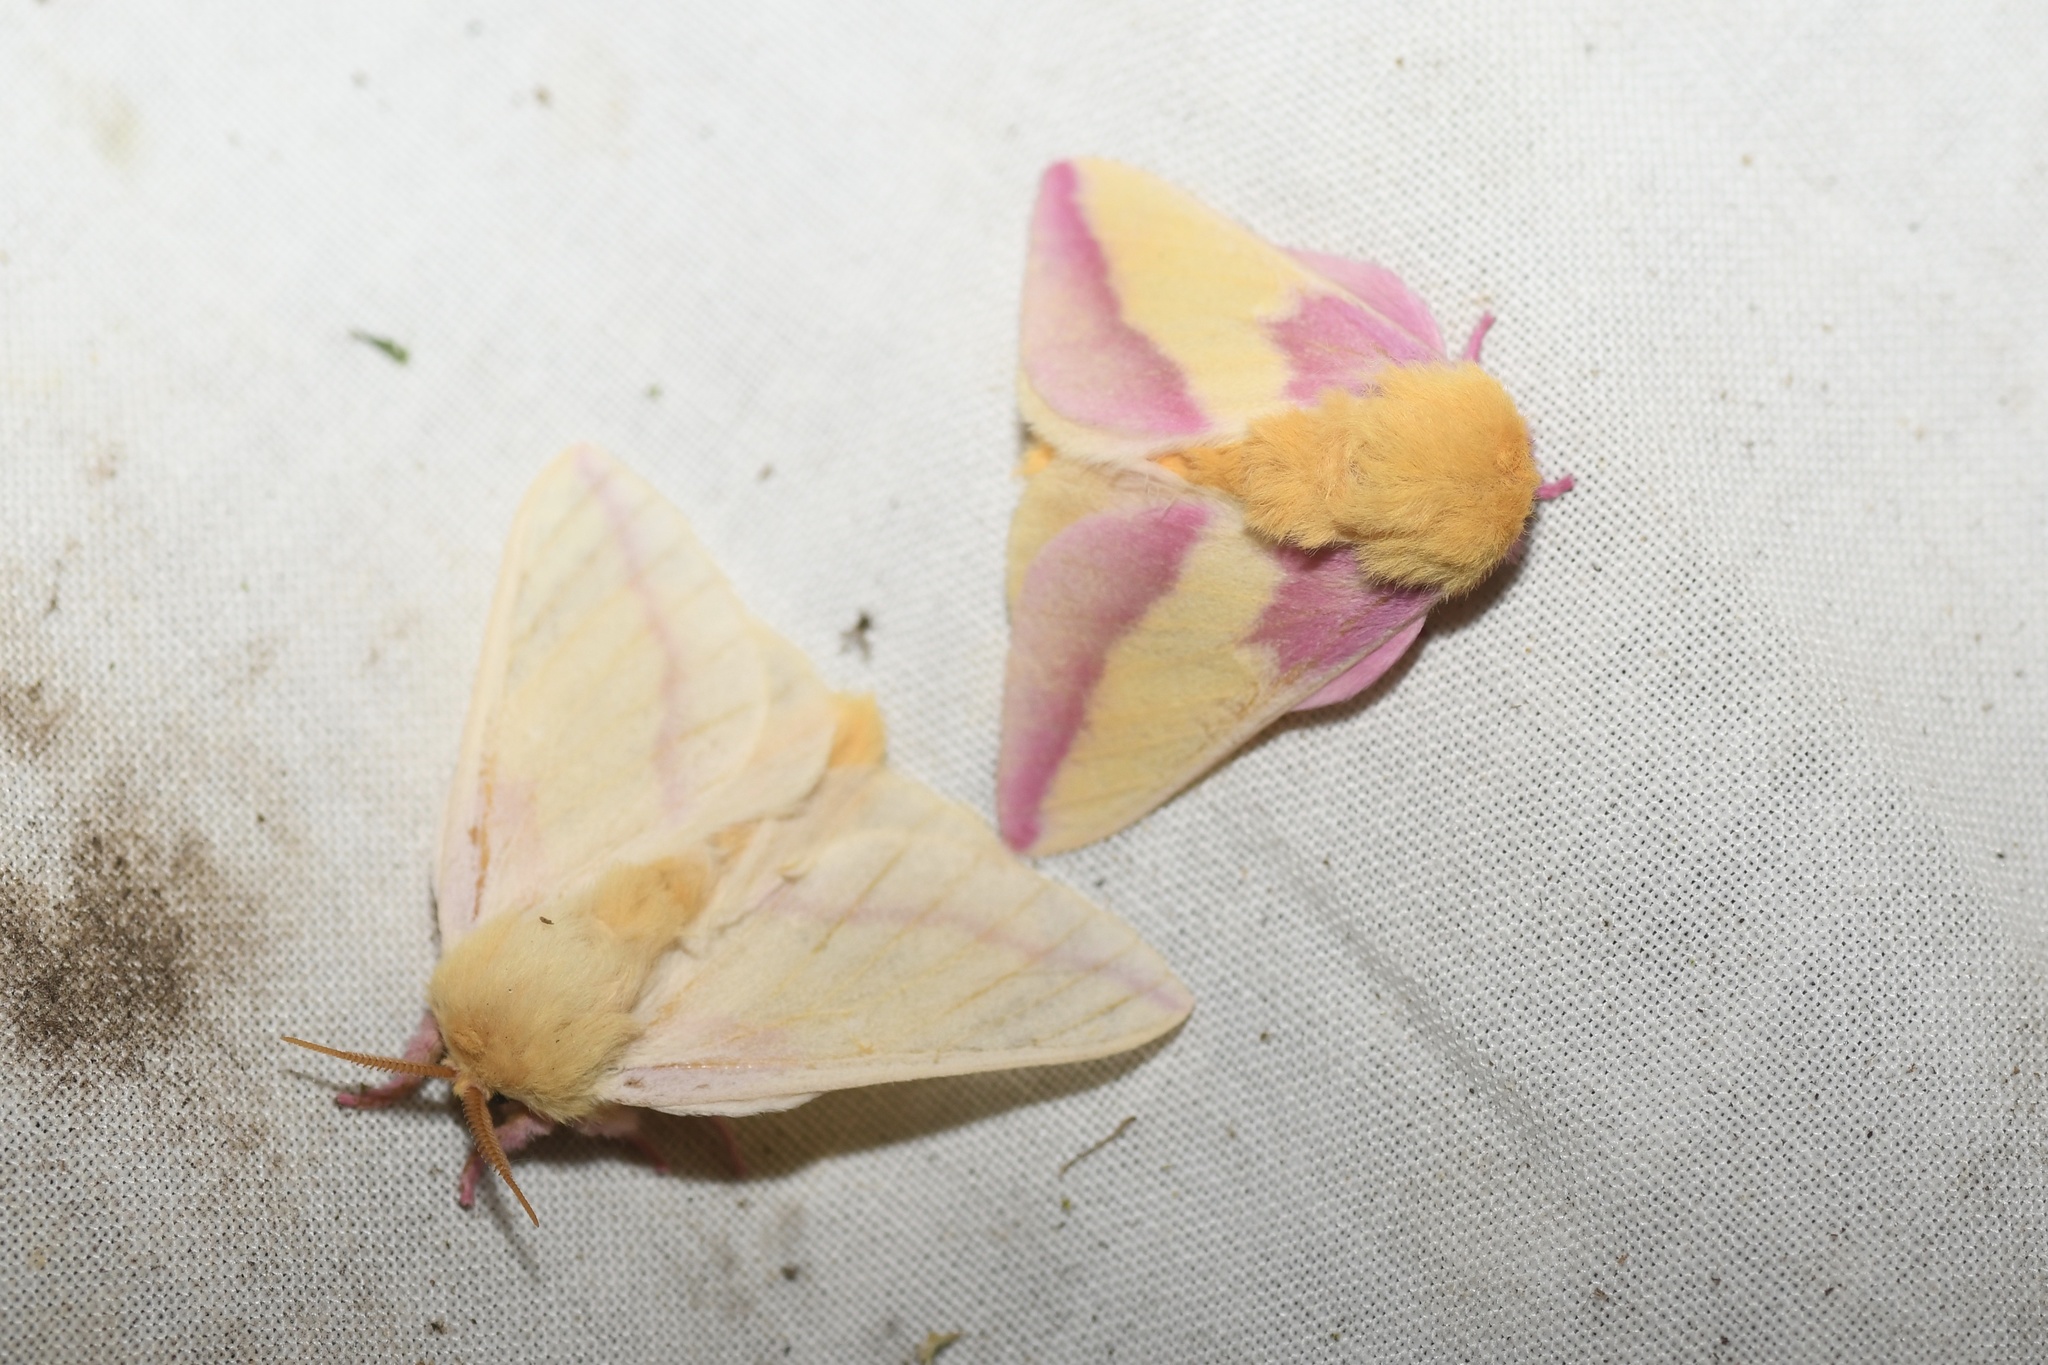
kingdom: Animalia
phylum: Arthropoda
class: Insecta
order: Lepidoptera
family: Saturniidae
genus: Dryocampa
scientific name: Dryocampa rubicunda
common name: Rosy maple moth
